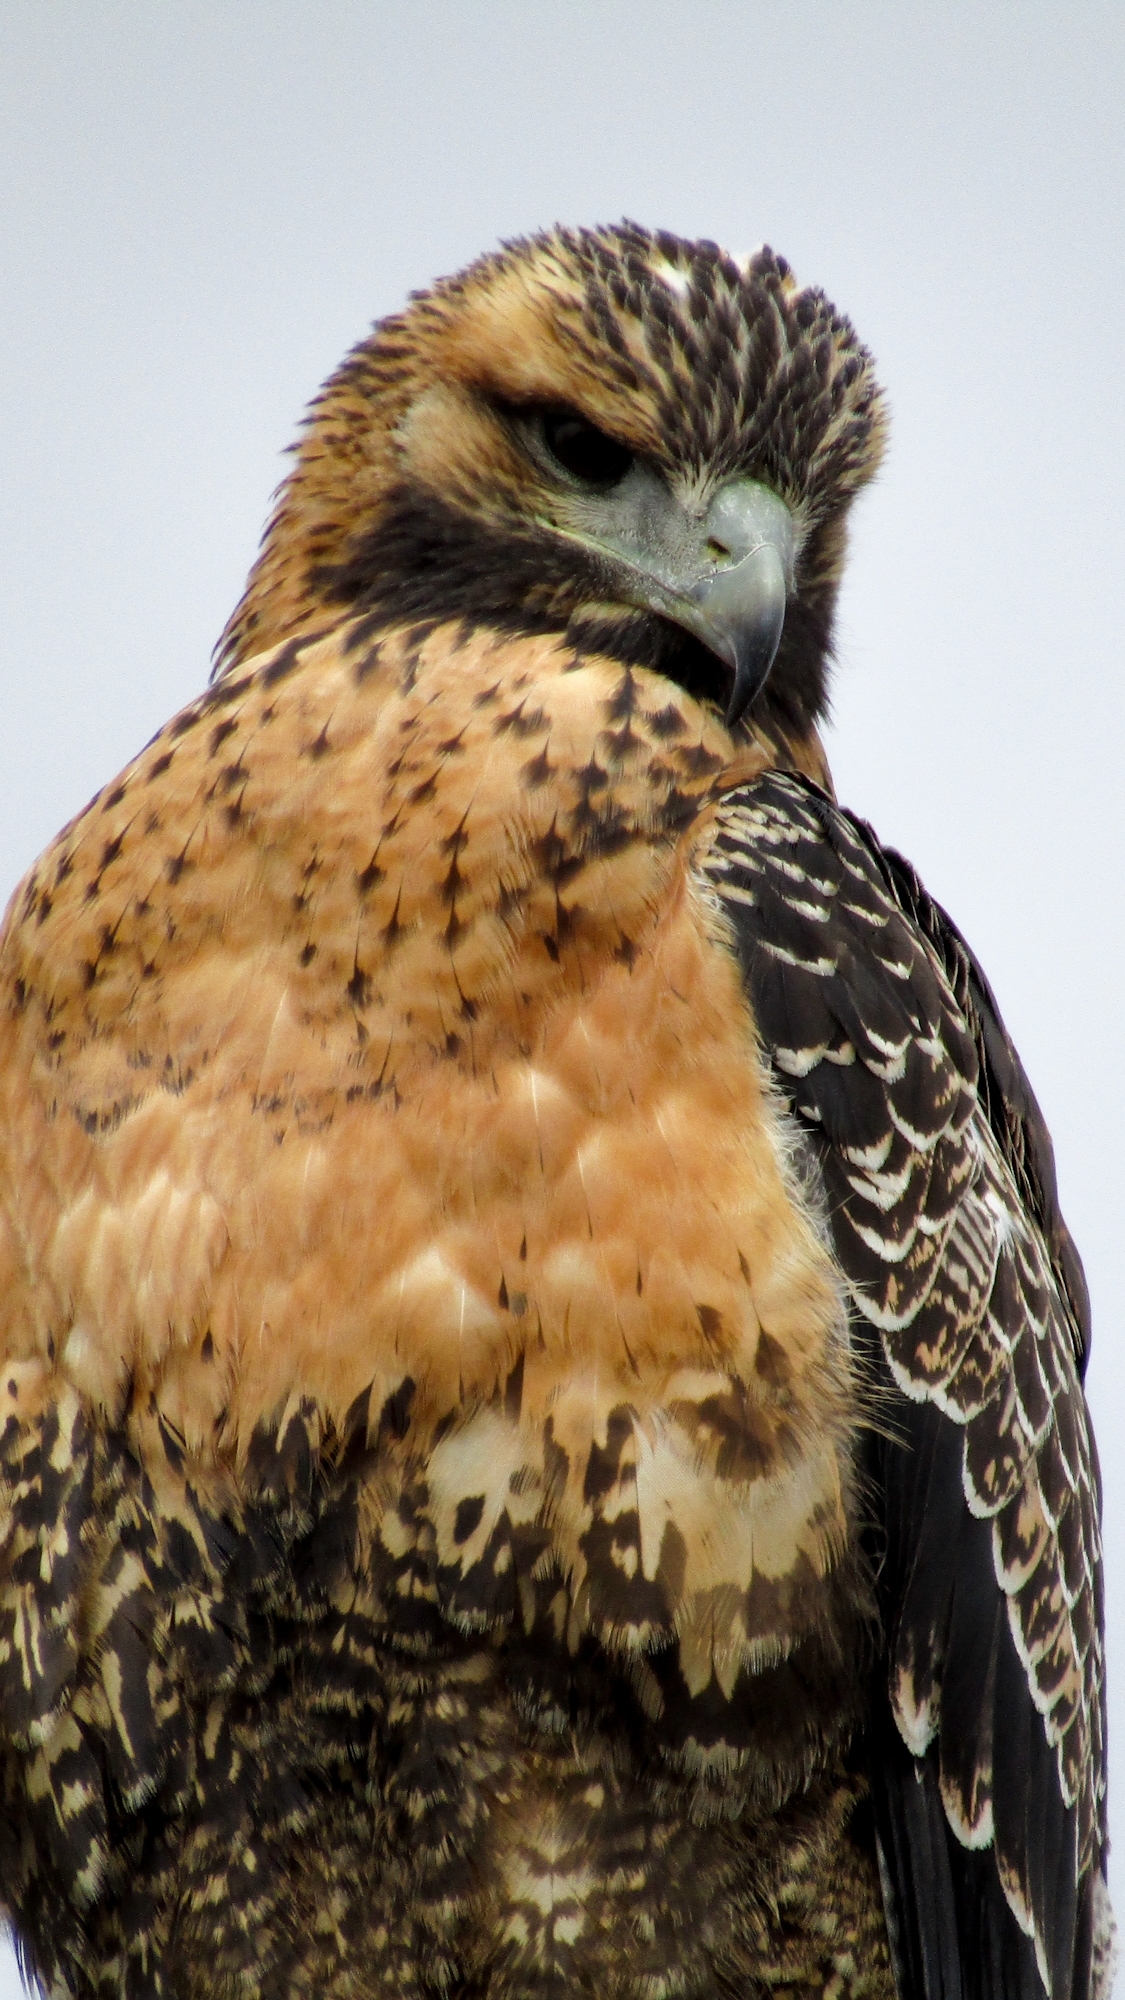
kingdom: Animalia
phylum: Chordata
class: Aves
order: Accipitriformes
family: Accipitridae
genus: Buteo
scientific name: Buteo polyosoma
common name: Variable hawk
